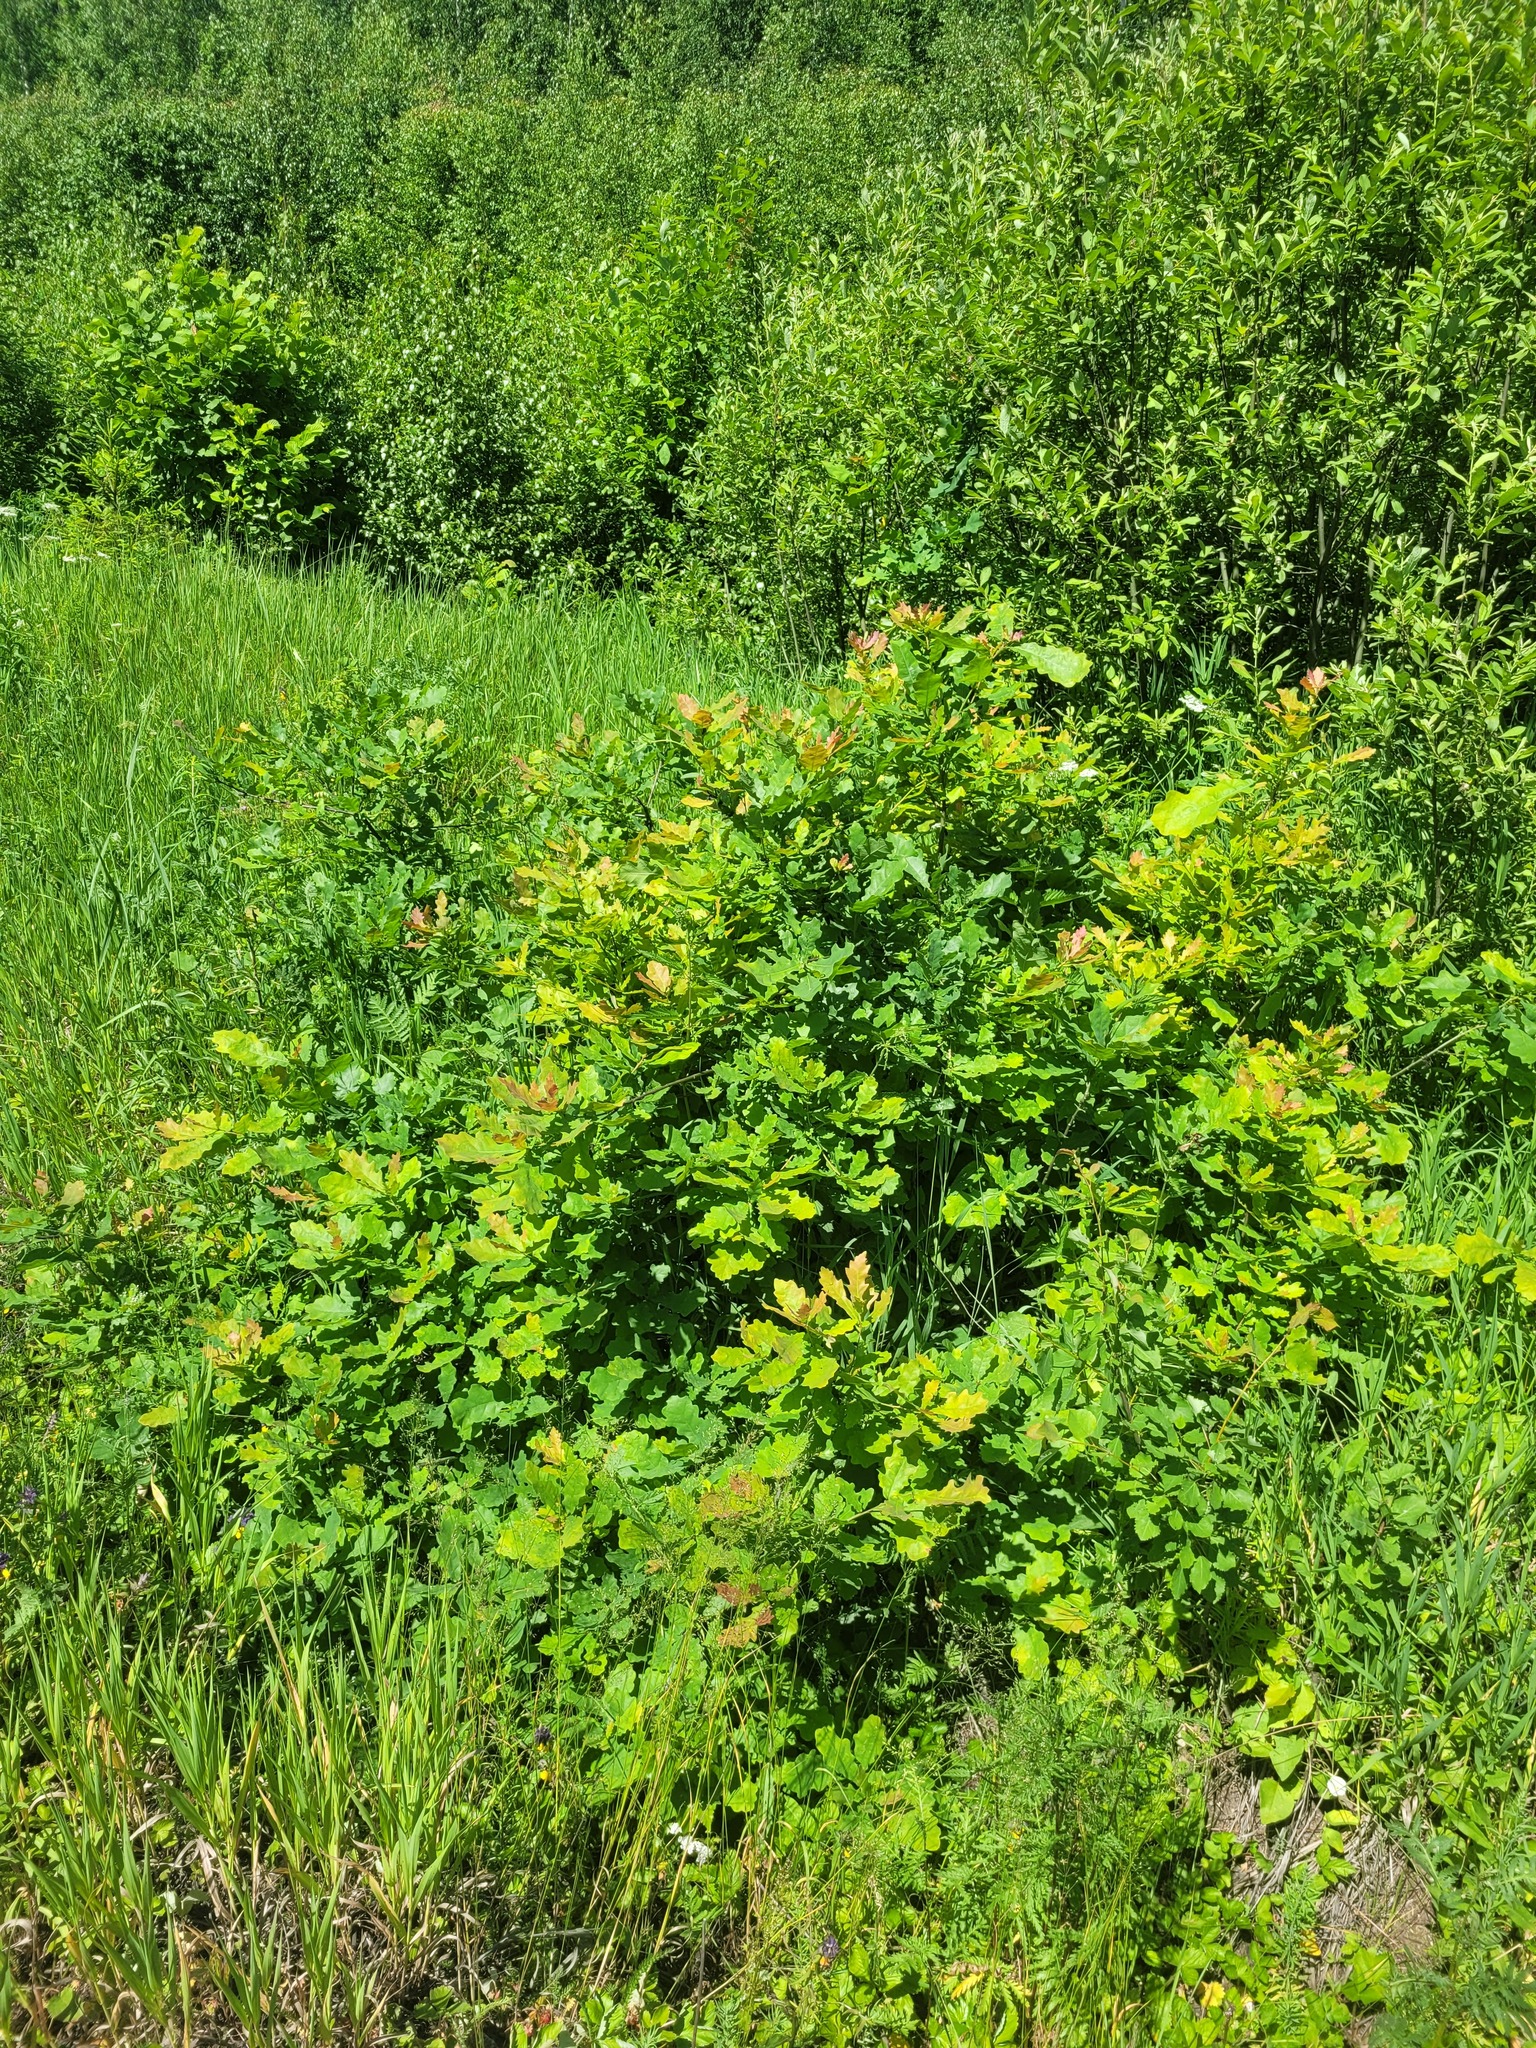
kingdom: Plantae
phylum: Tracheophyta
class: Magnoliopsida
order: Fagales
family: Fagaceae
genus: Quercus
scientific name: Quercus robur
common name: Pedunculate oak
